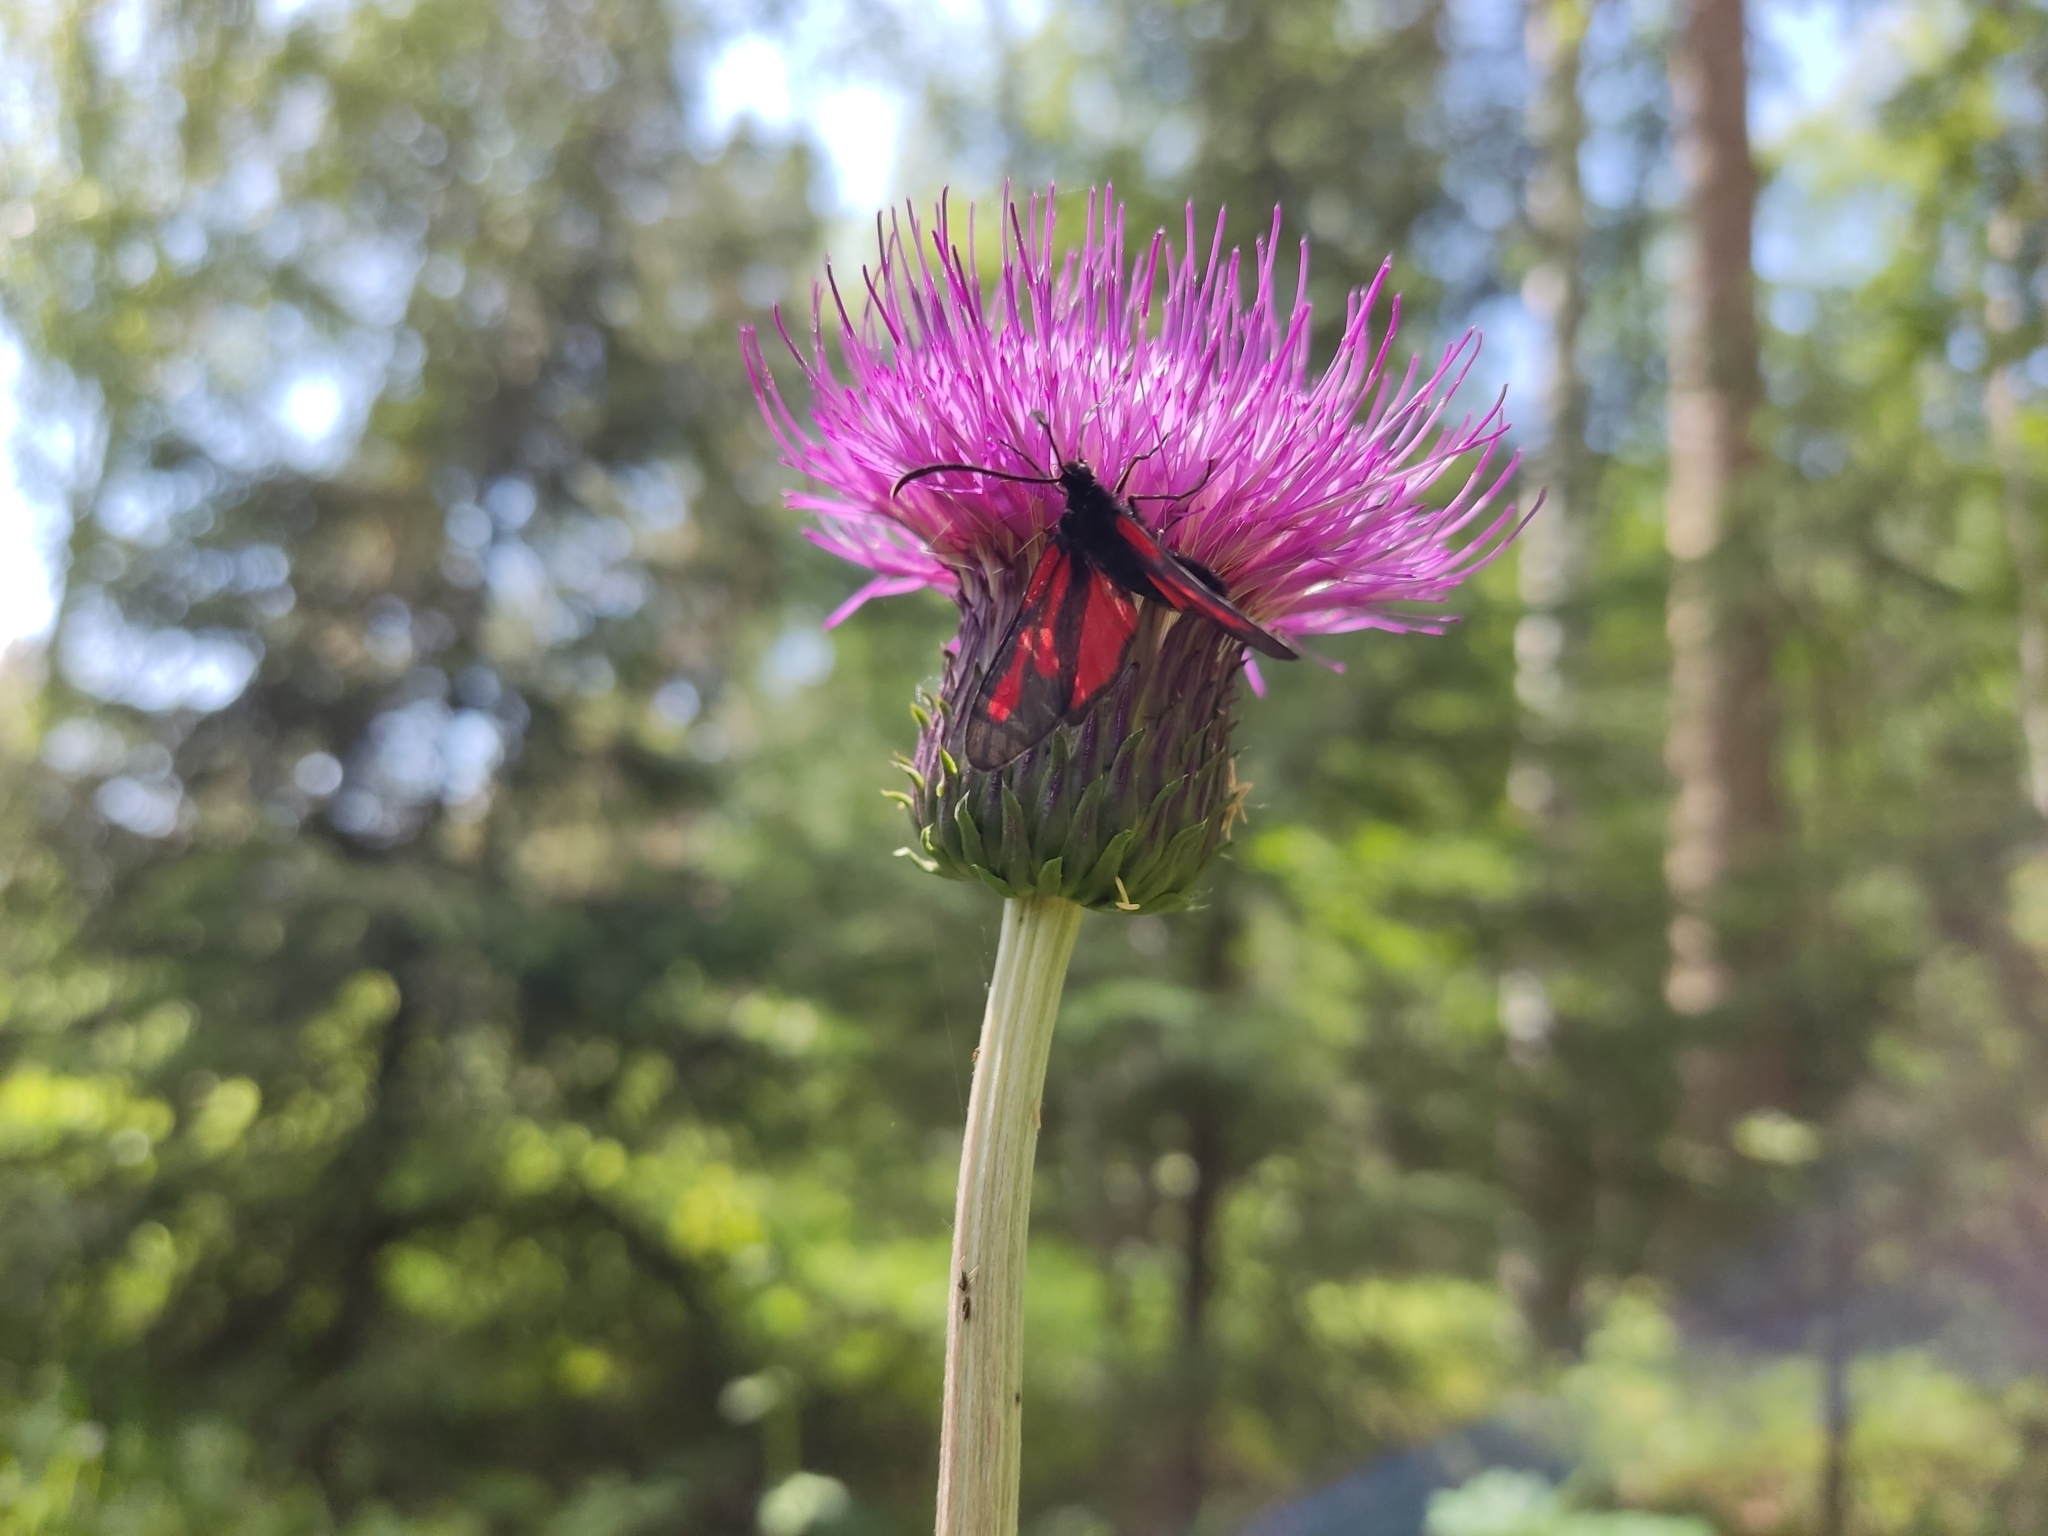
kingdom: Animalia
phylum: Arthropoda
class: Insecta
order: Lepidoptera
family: Zygaenidae
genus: Zygaena
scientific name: Zygaena osterodensis
